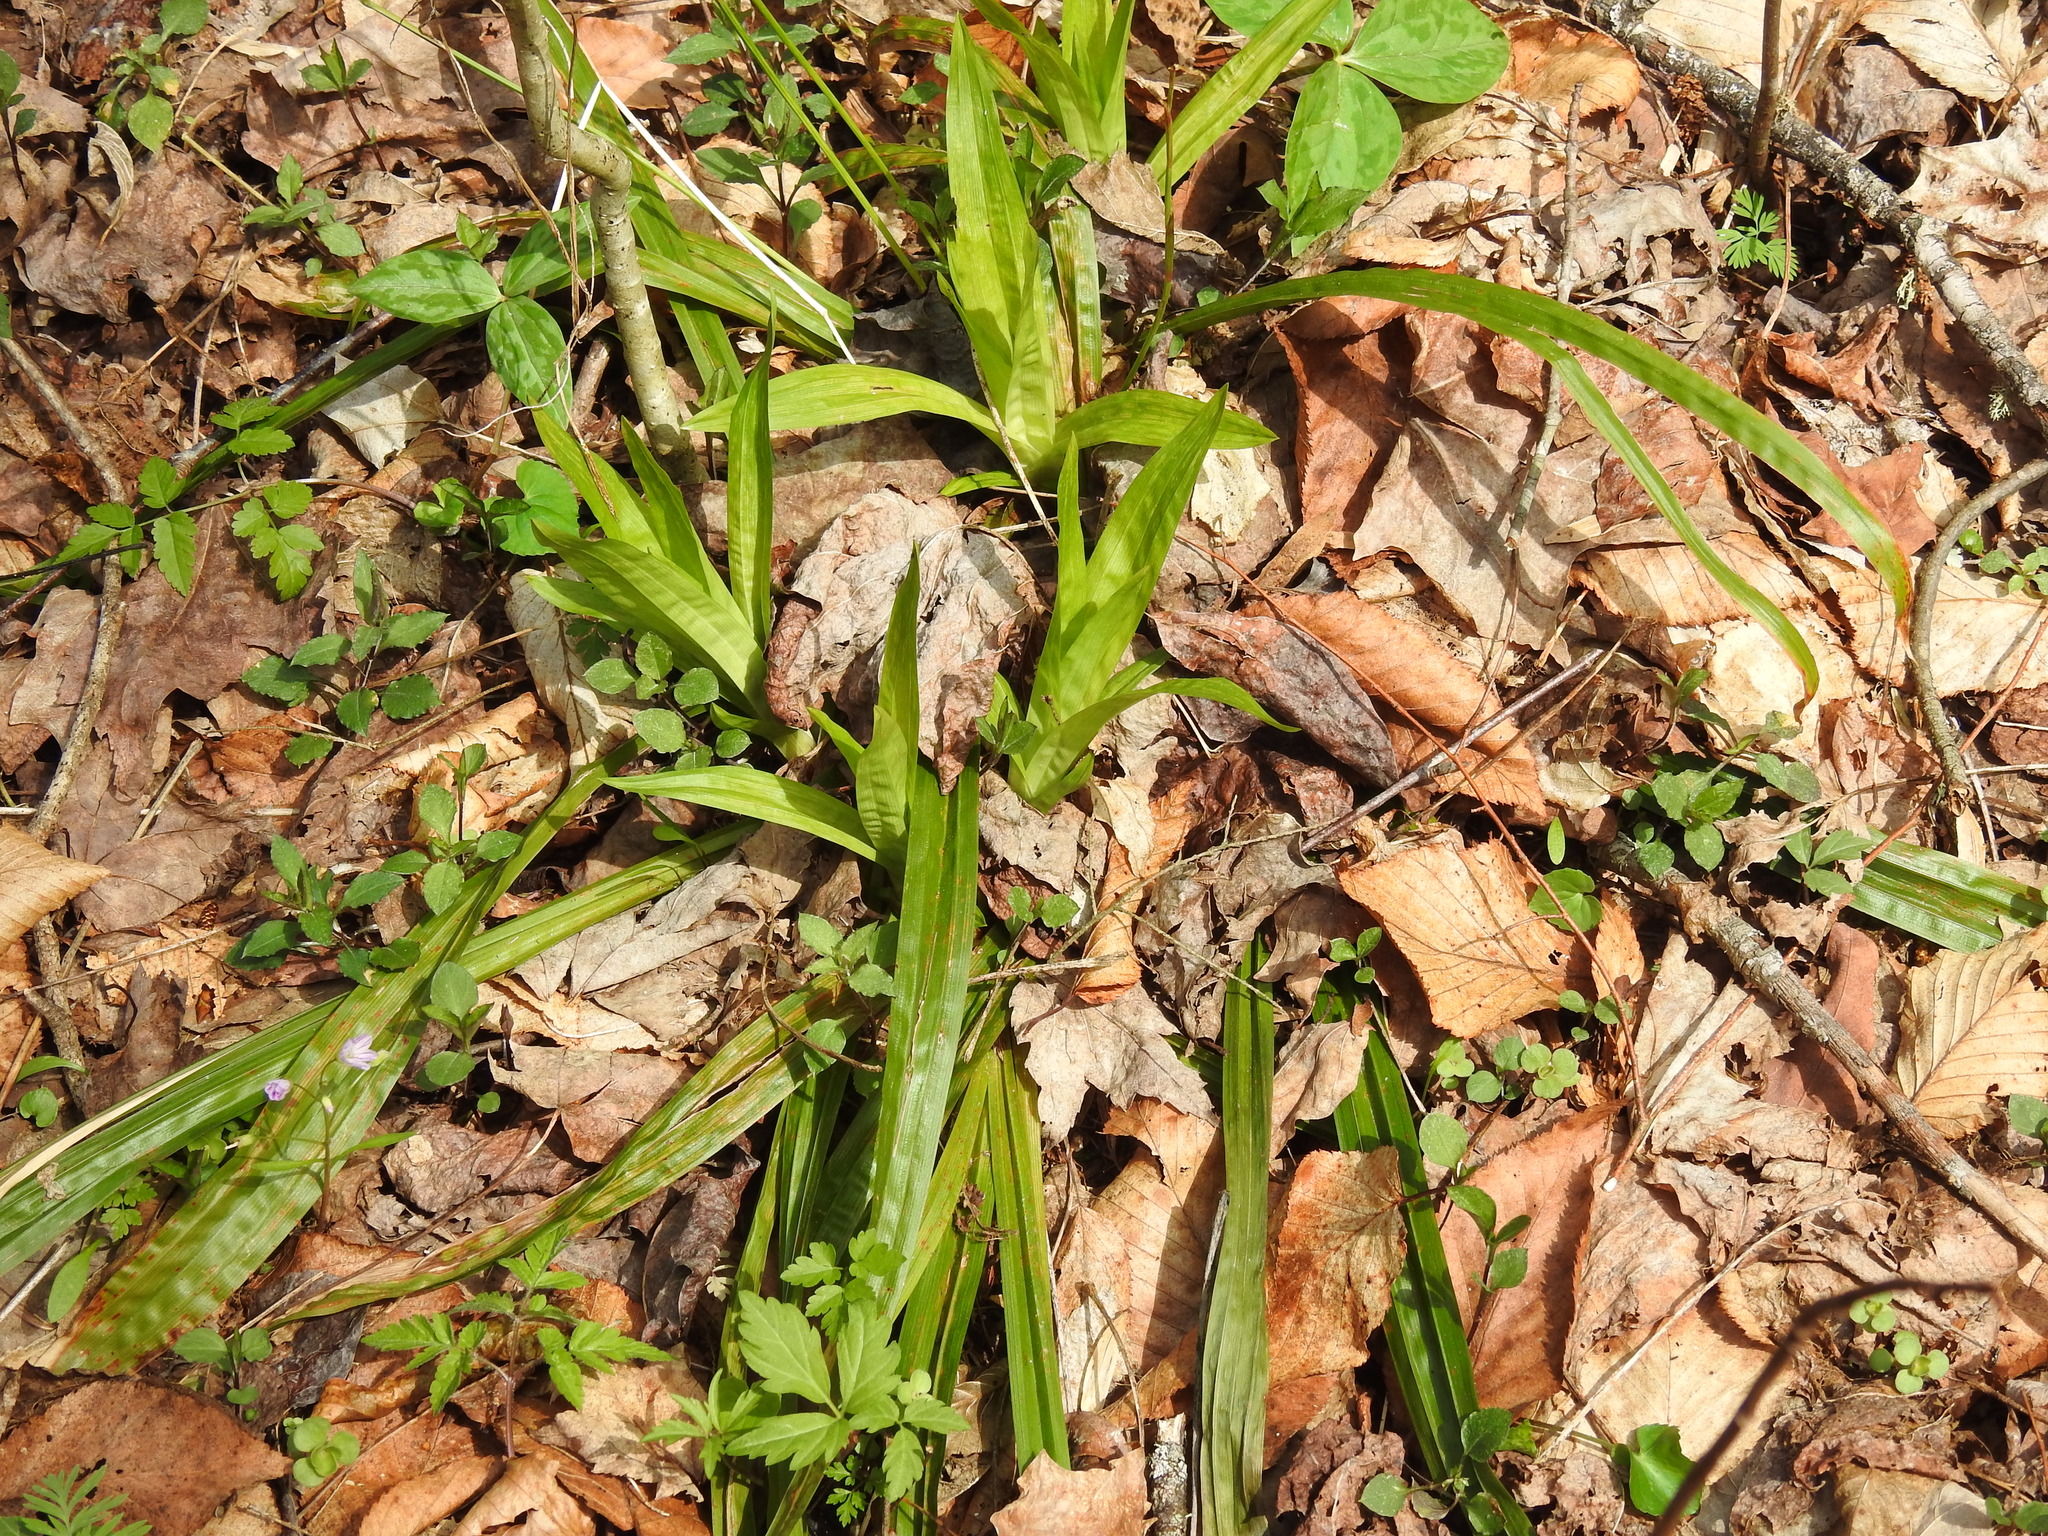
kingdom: Plantae
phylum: Tracheophyta
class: Liliopsida
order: Poales
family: Cyperaceae
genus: Carex
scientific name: Carex plantaginea
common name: Plantain-leaved sedge
